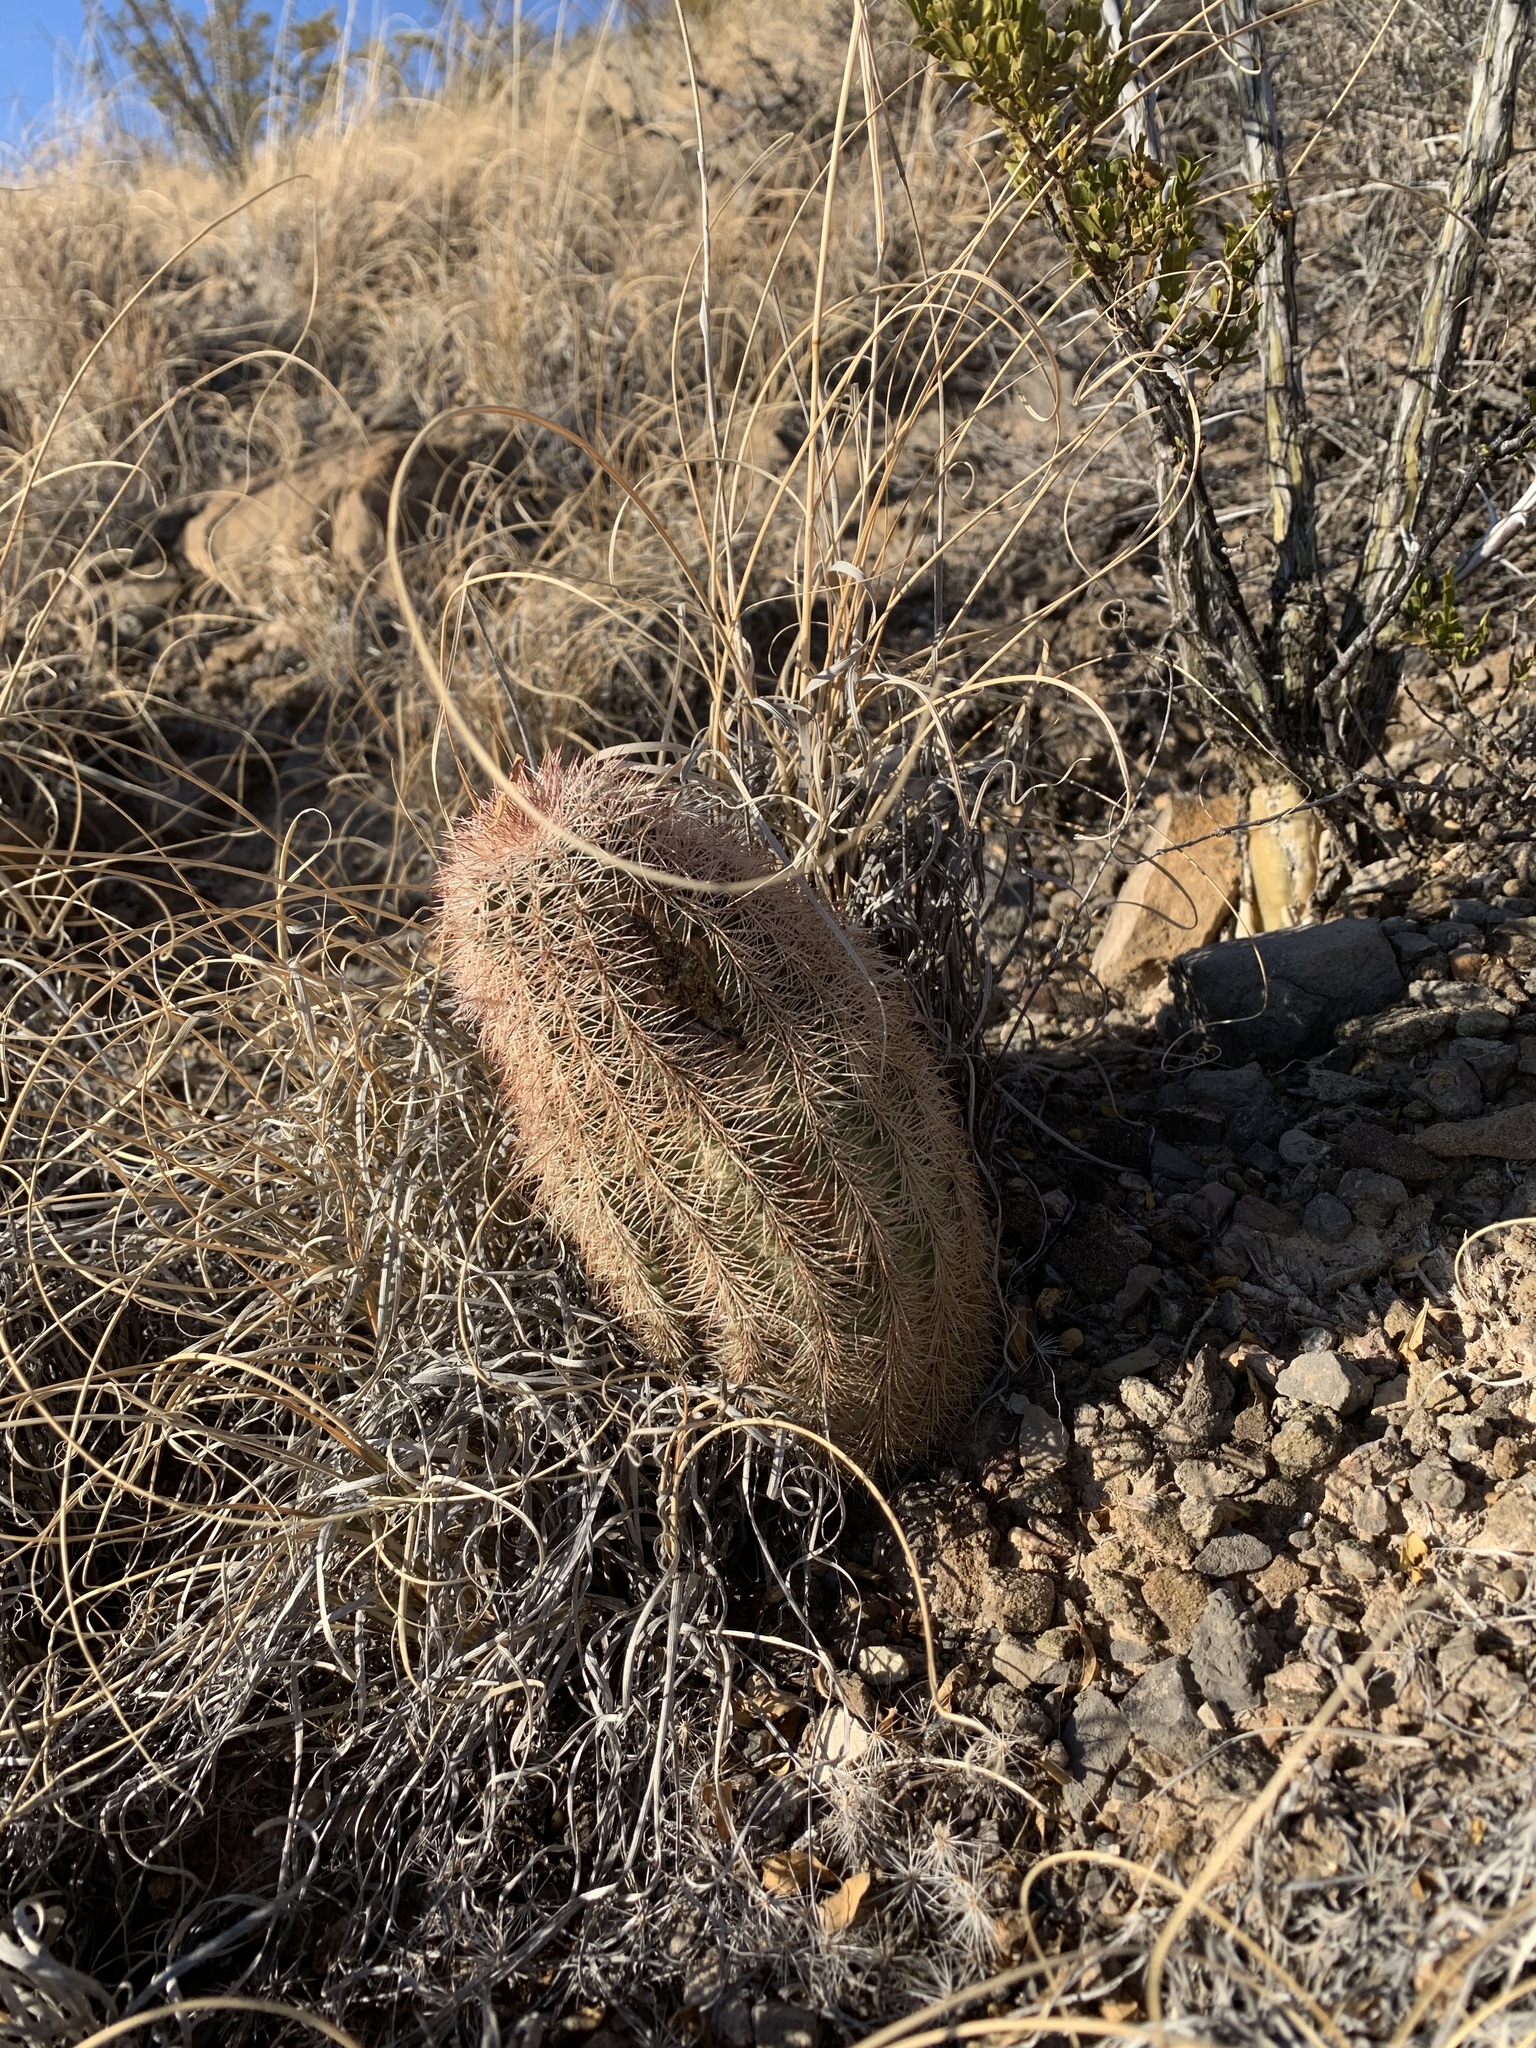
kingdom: Plantae
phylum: Tracheophyta
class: Magnoliopsida
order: Caryophyllales
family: Cactaceae
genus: Echinocereus
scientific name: Echinocereus dasyacanthus
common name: Spiny hedgehog cactus
